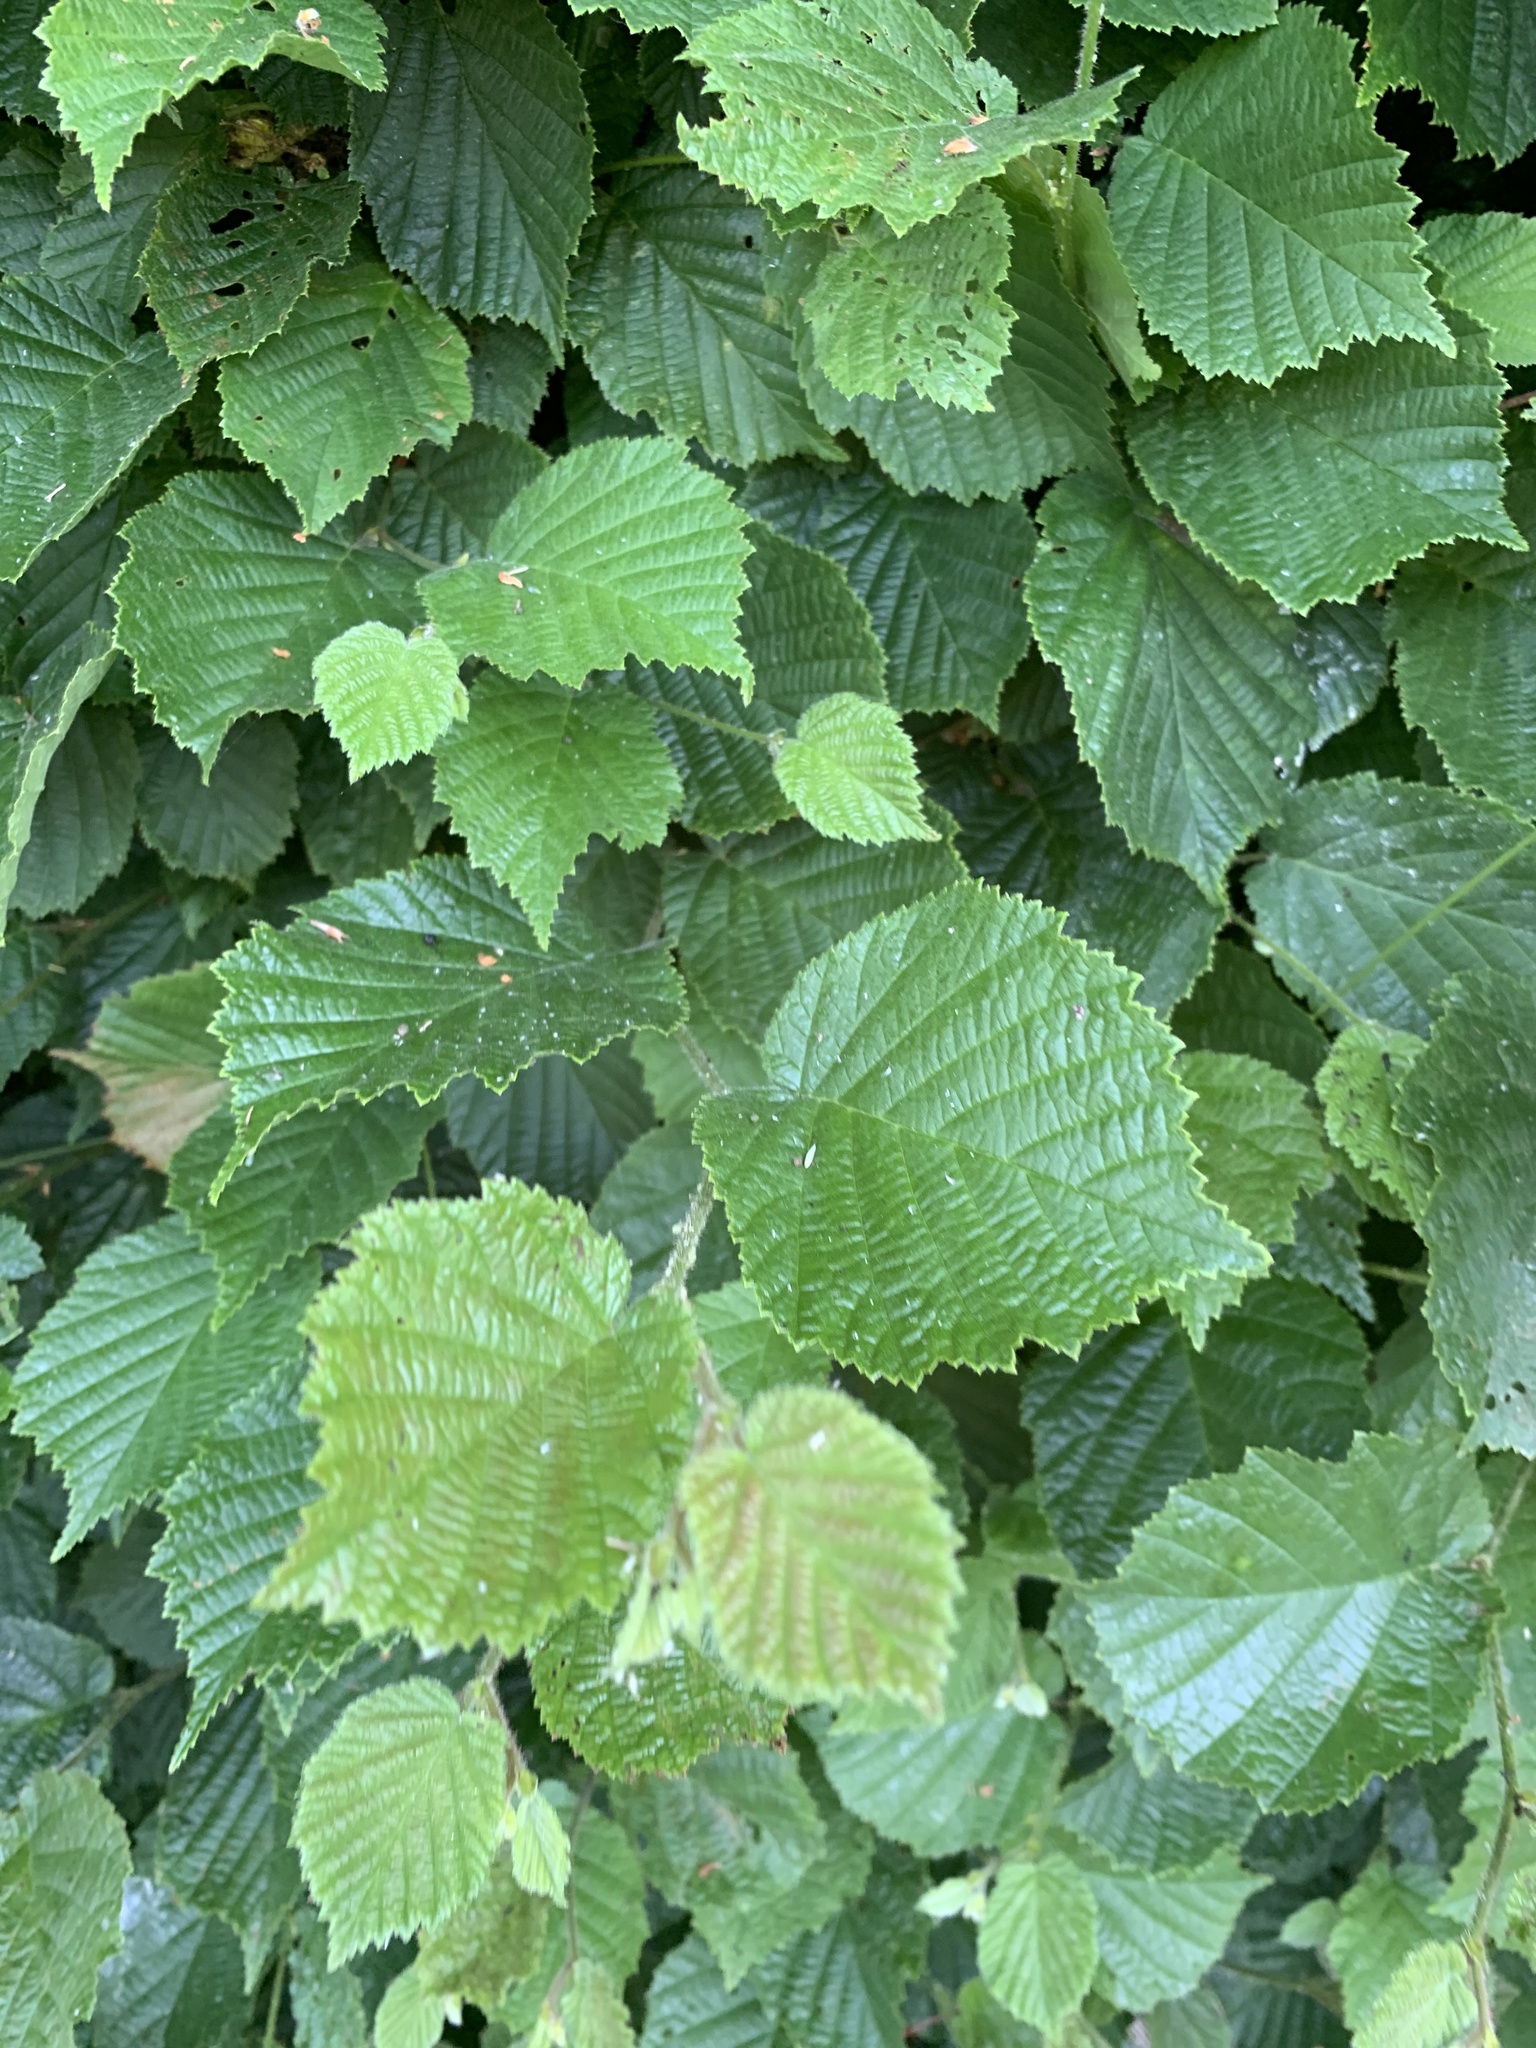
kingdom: Plantae
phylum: Tracheophyta
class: Magnoliopsida
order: Fagales
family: Betulaceae
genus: Corylus
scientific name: Corylus avellana
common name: European hazel
